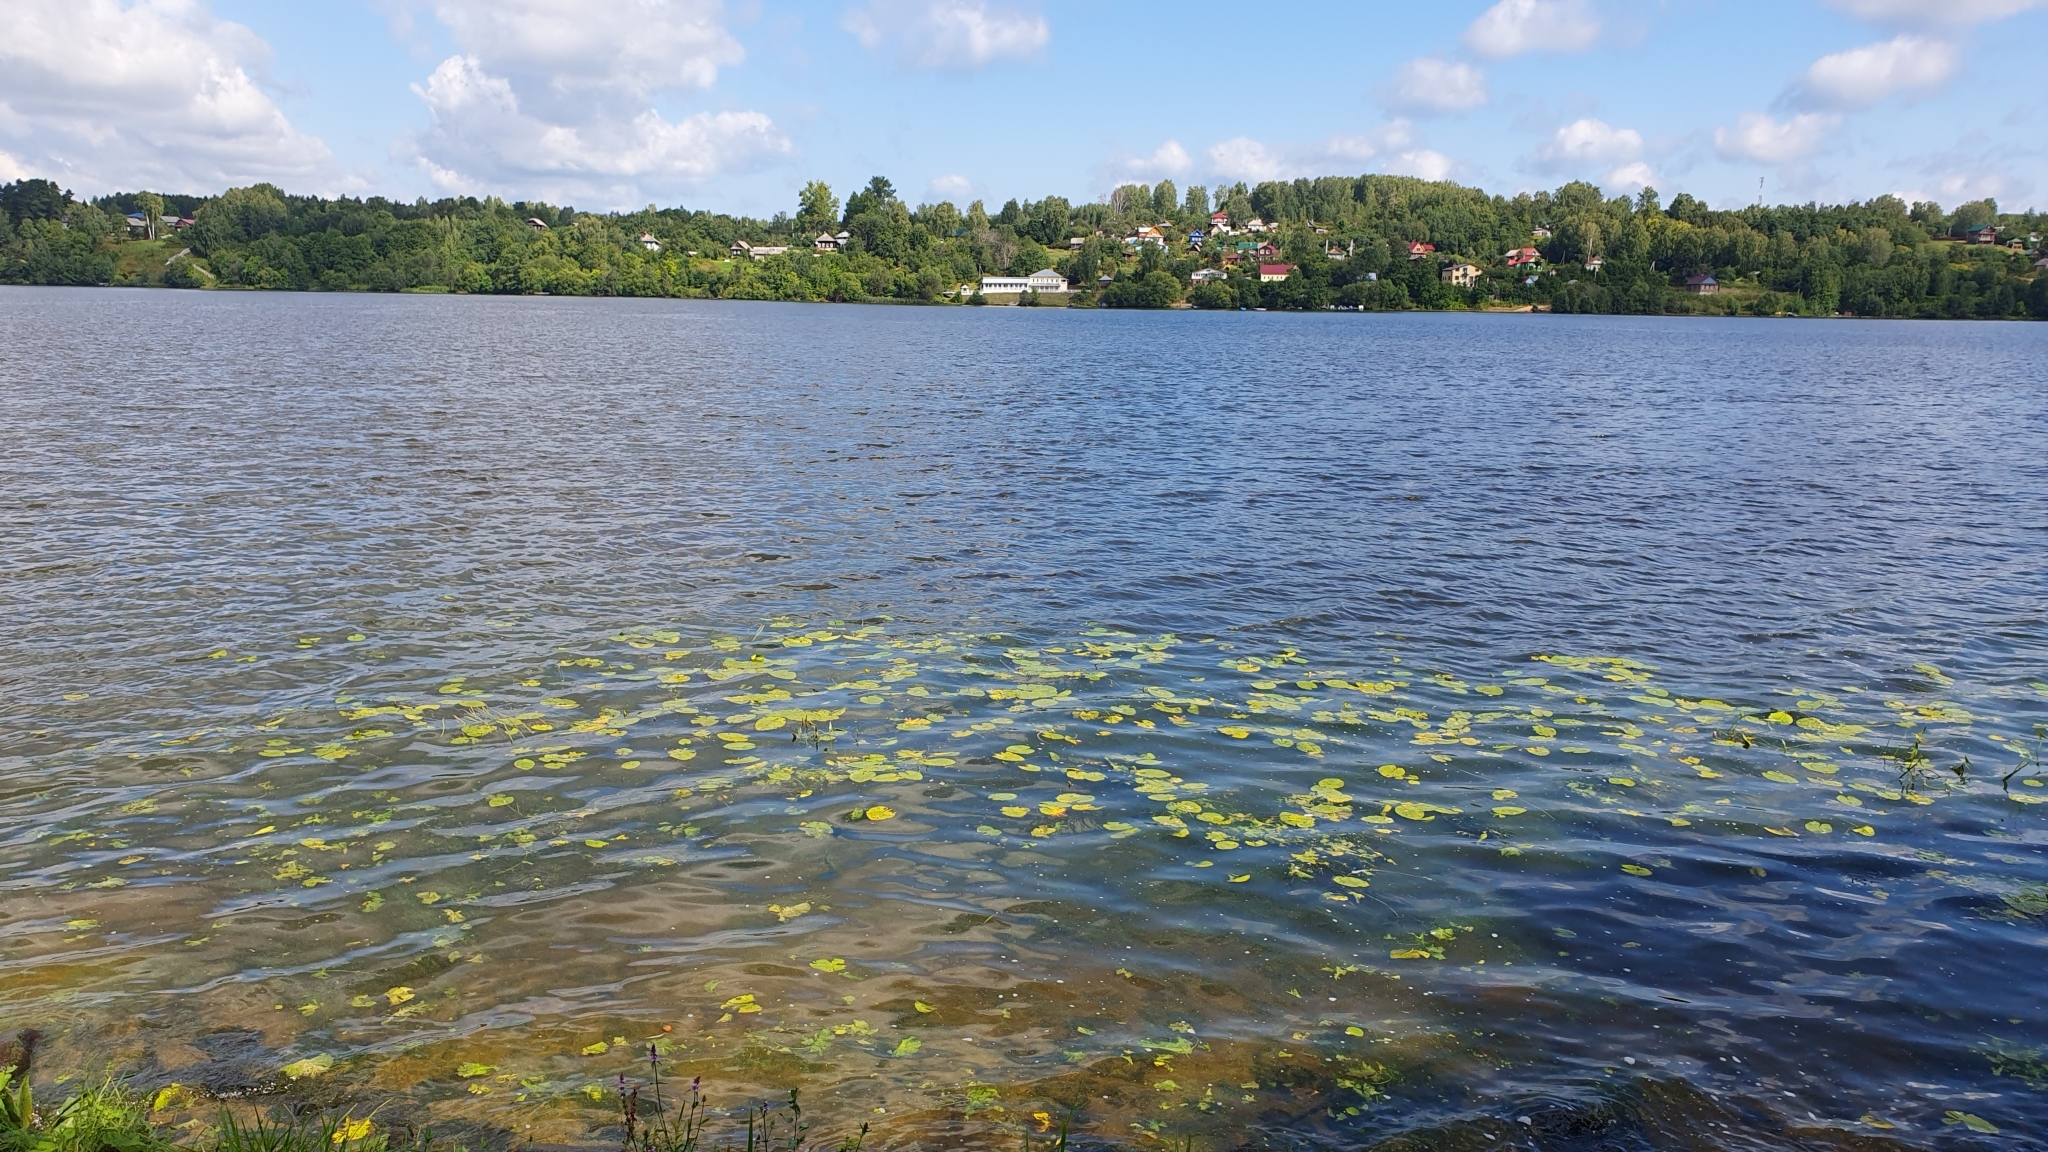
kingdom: Plantae
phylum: Tracheophyta
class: Magnoliopsida
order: Nymphaeales
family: Nymphaeaceae
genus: Nuphar
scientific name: Nuphar lutea
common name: Yellow water-lily
